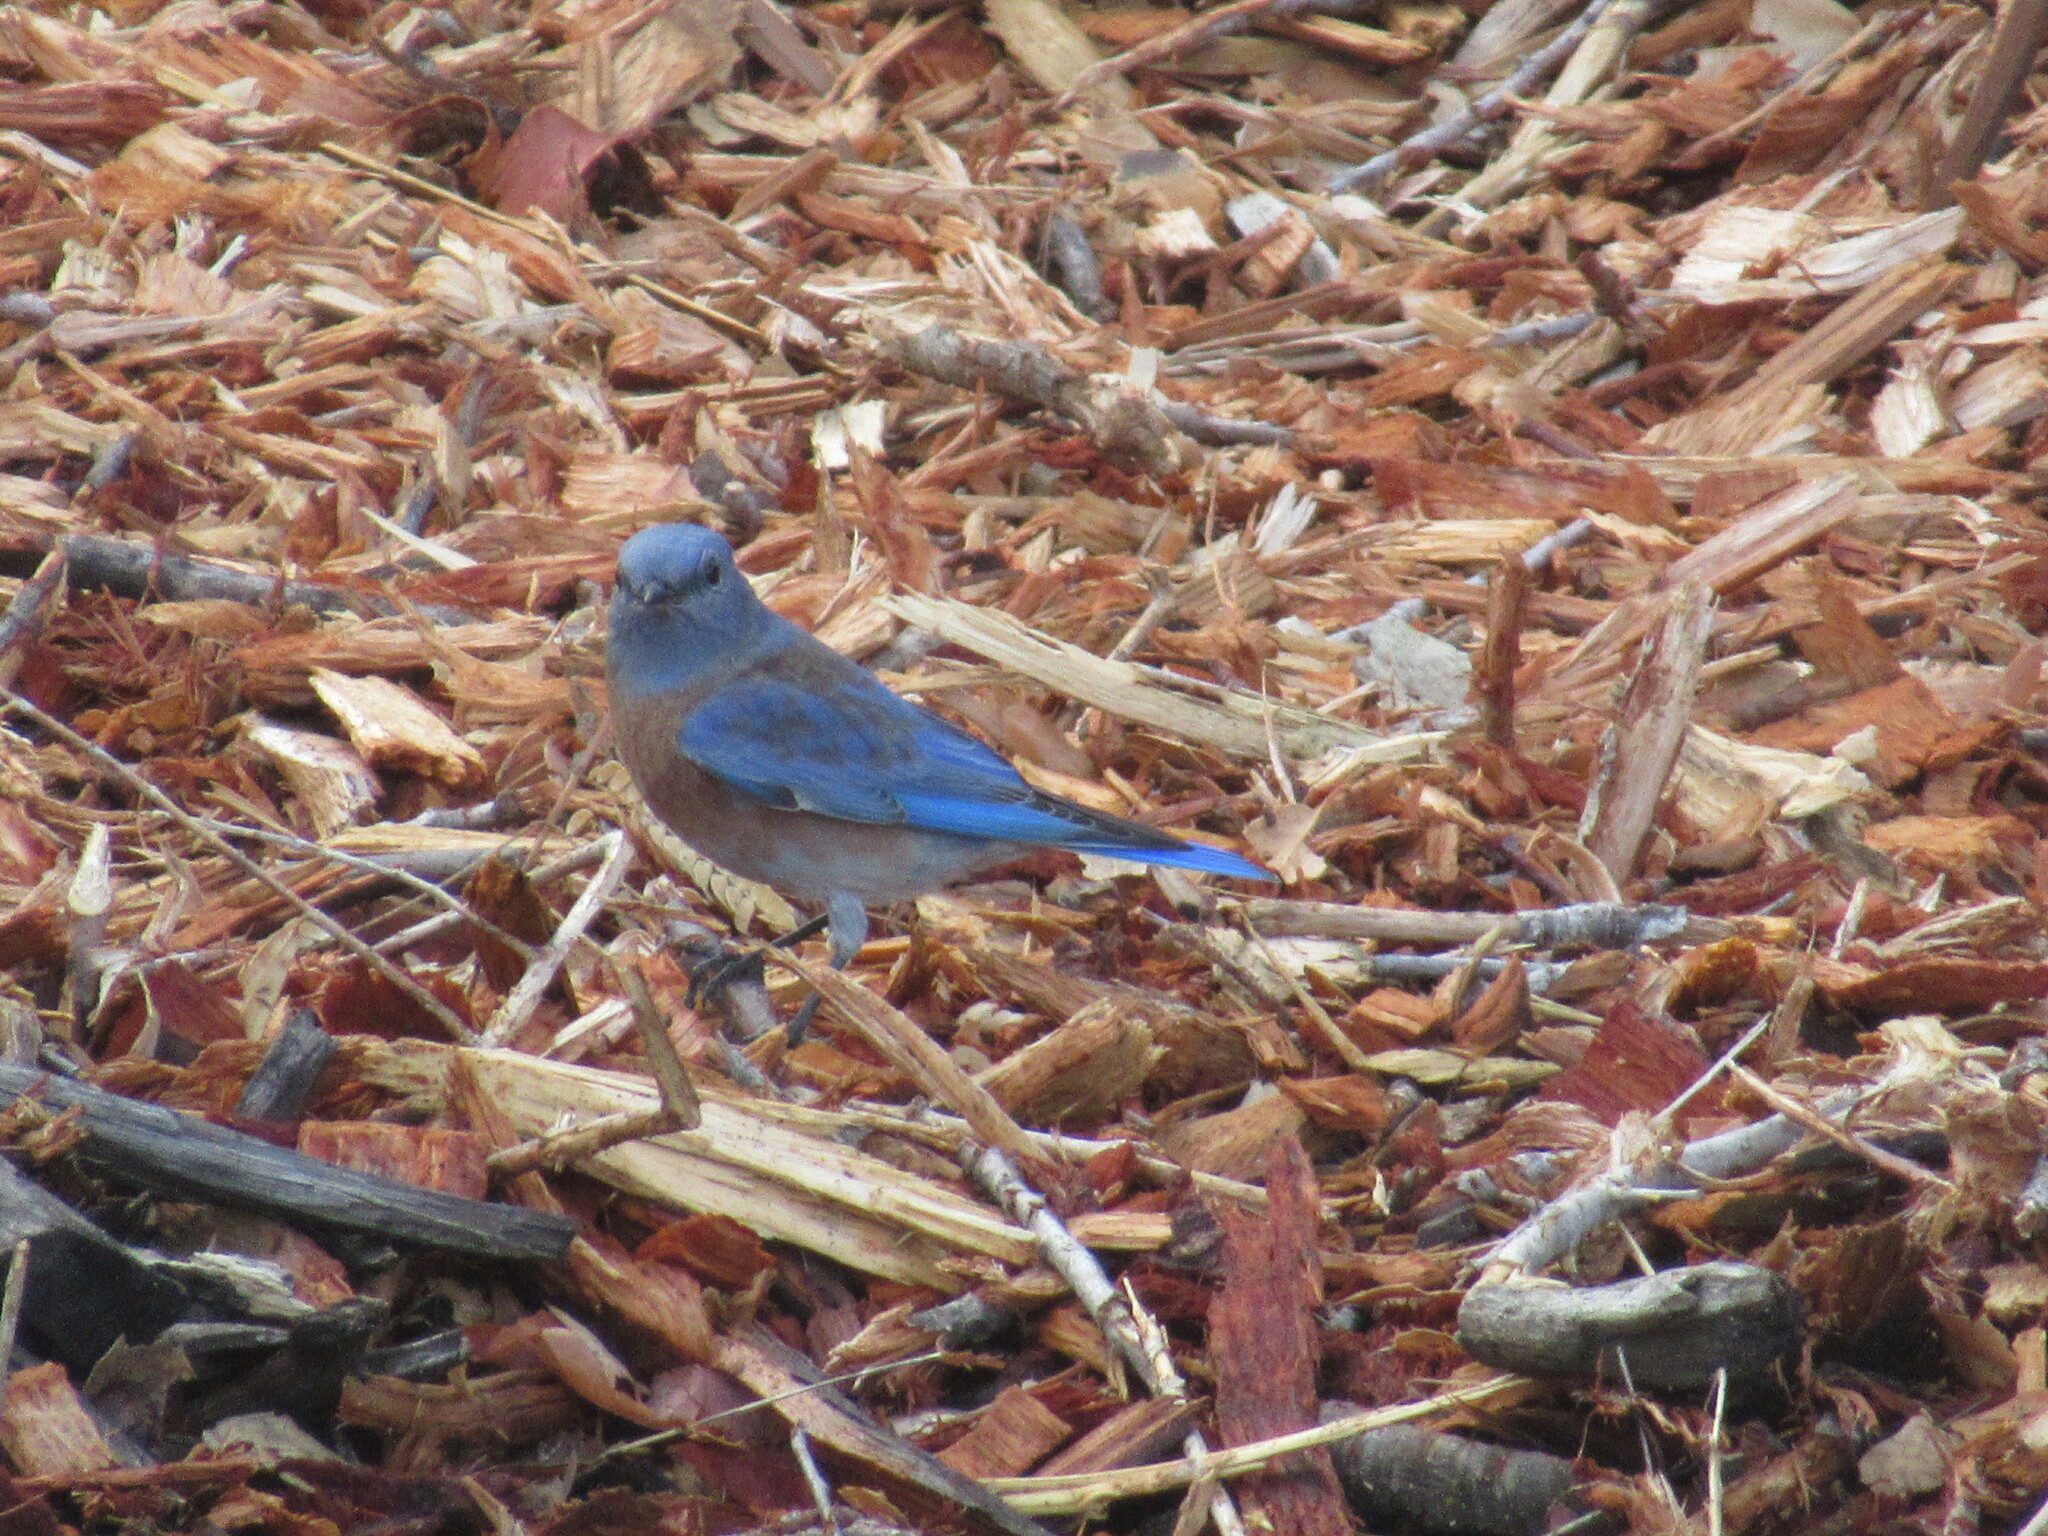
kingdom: Animalia
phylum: Chordata
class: Aves
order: Passeriformes
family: Turdidae
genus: Sialia
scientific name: Sialia mexicana
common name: Western bluebird
